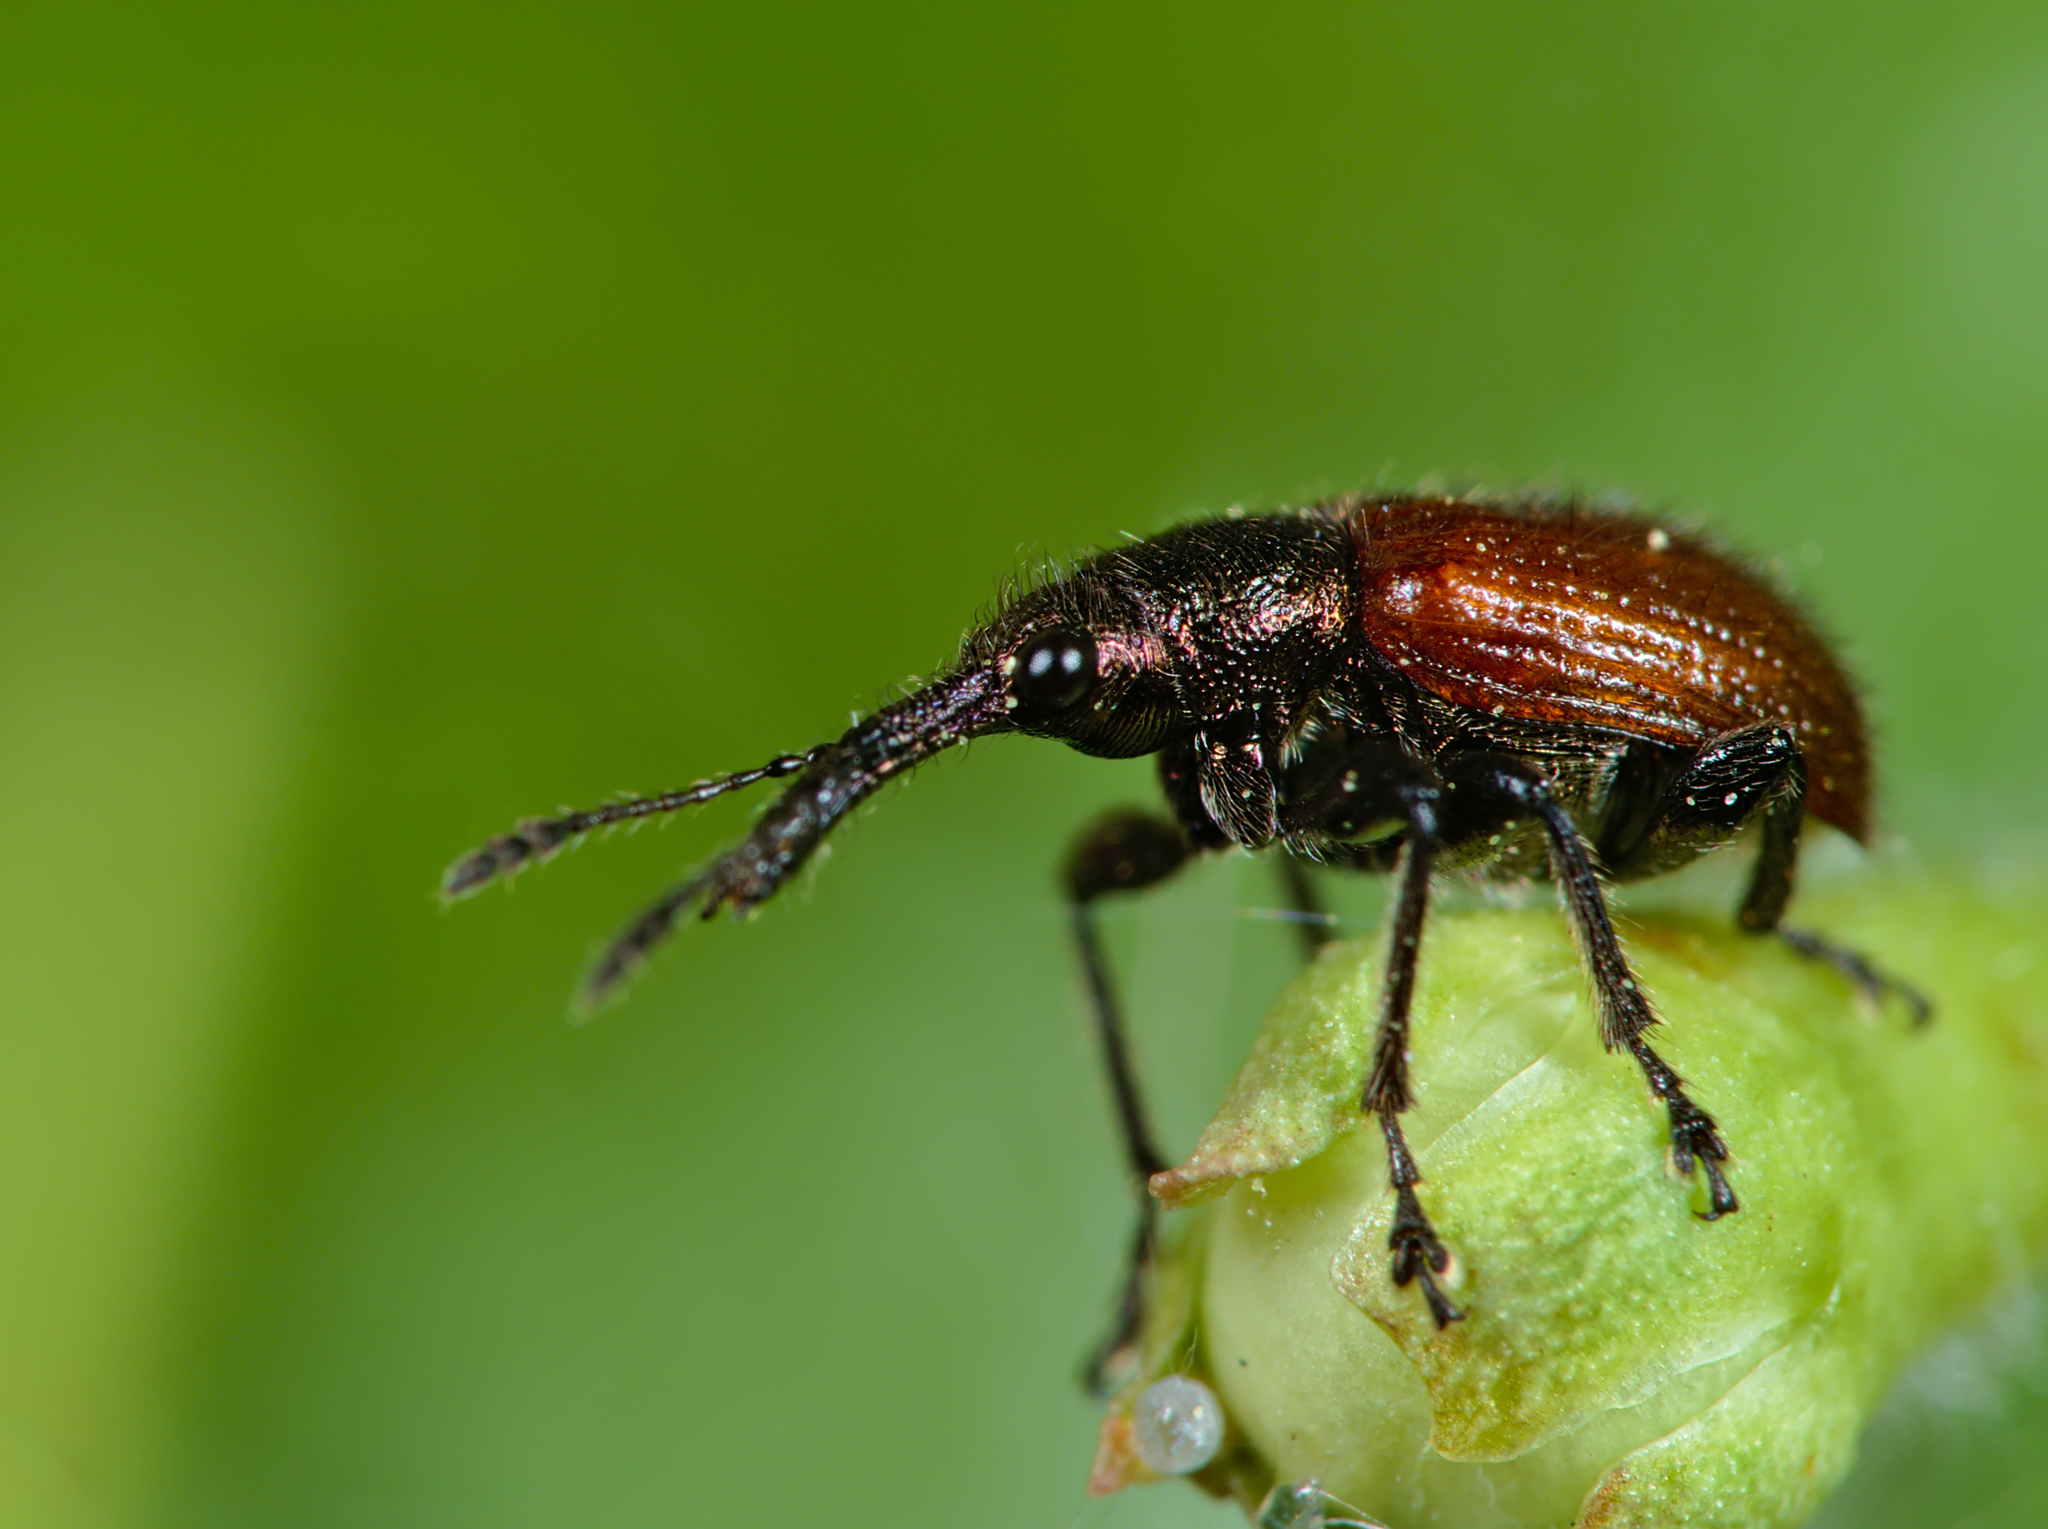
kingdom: Animalia
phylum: Arthropoda
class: Insecta
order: Coleoptera
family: Rhynchitidae
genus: Tatianaerhynchites
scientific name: Tatianaerhynchites aequatus
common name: Apple fruit rhynchites
